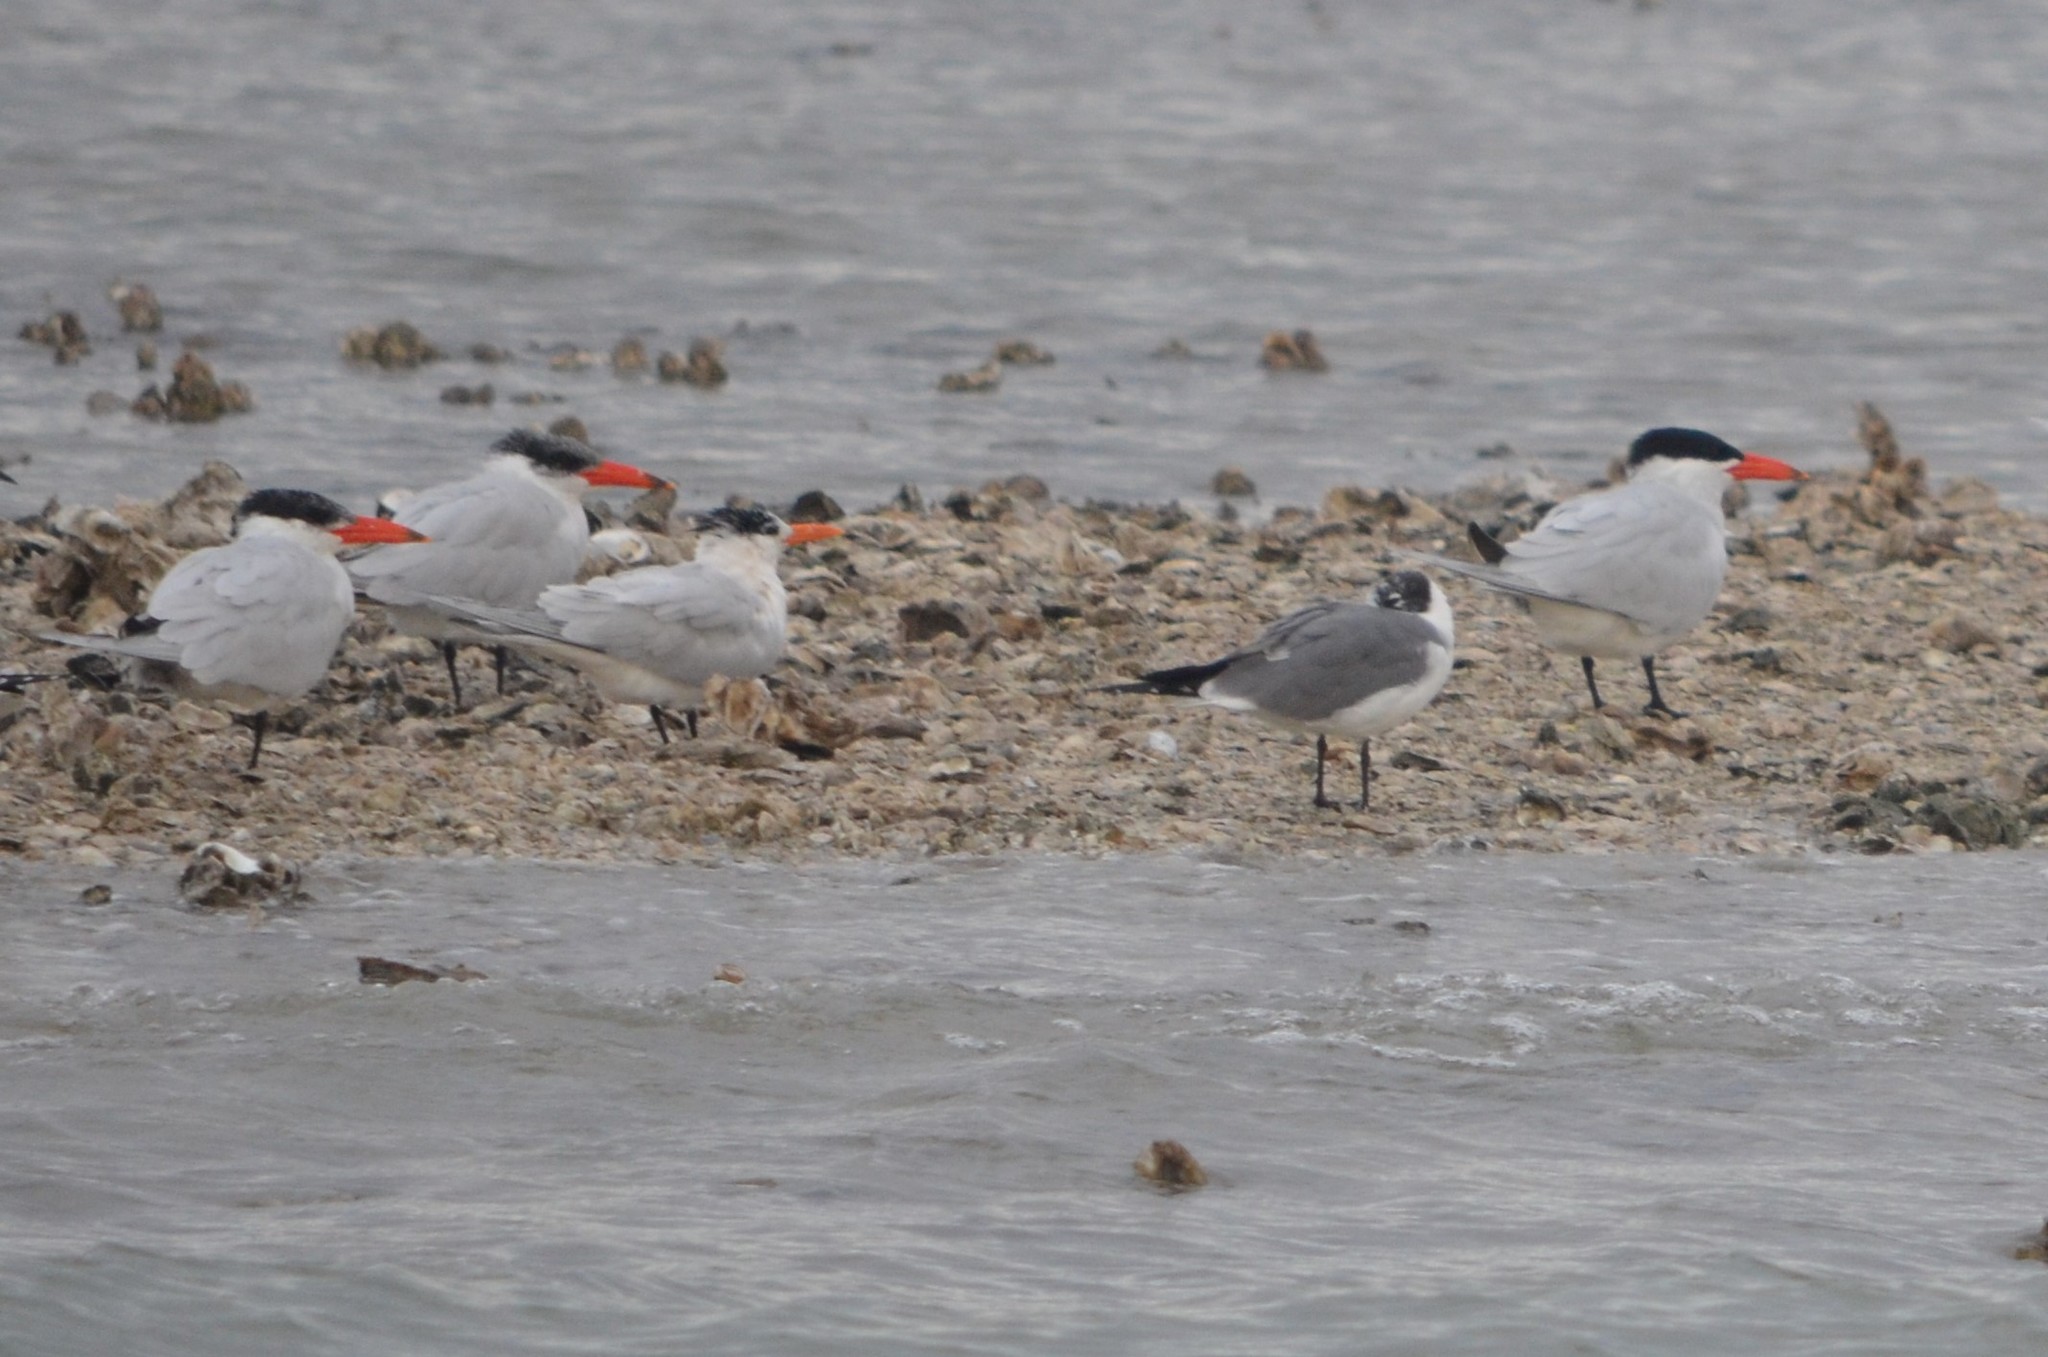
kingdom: Animalia
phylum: Chordata
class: Aves
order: Charadriiformes
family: Laridae
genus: Hydroprogne
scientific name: Hydroprogne caspia
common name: Caspian tern
